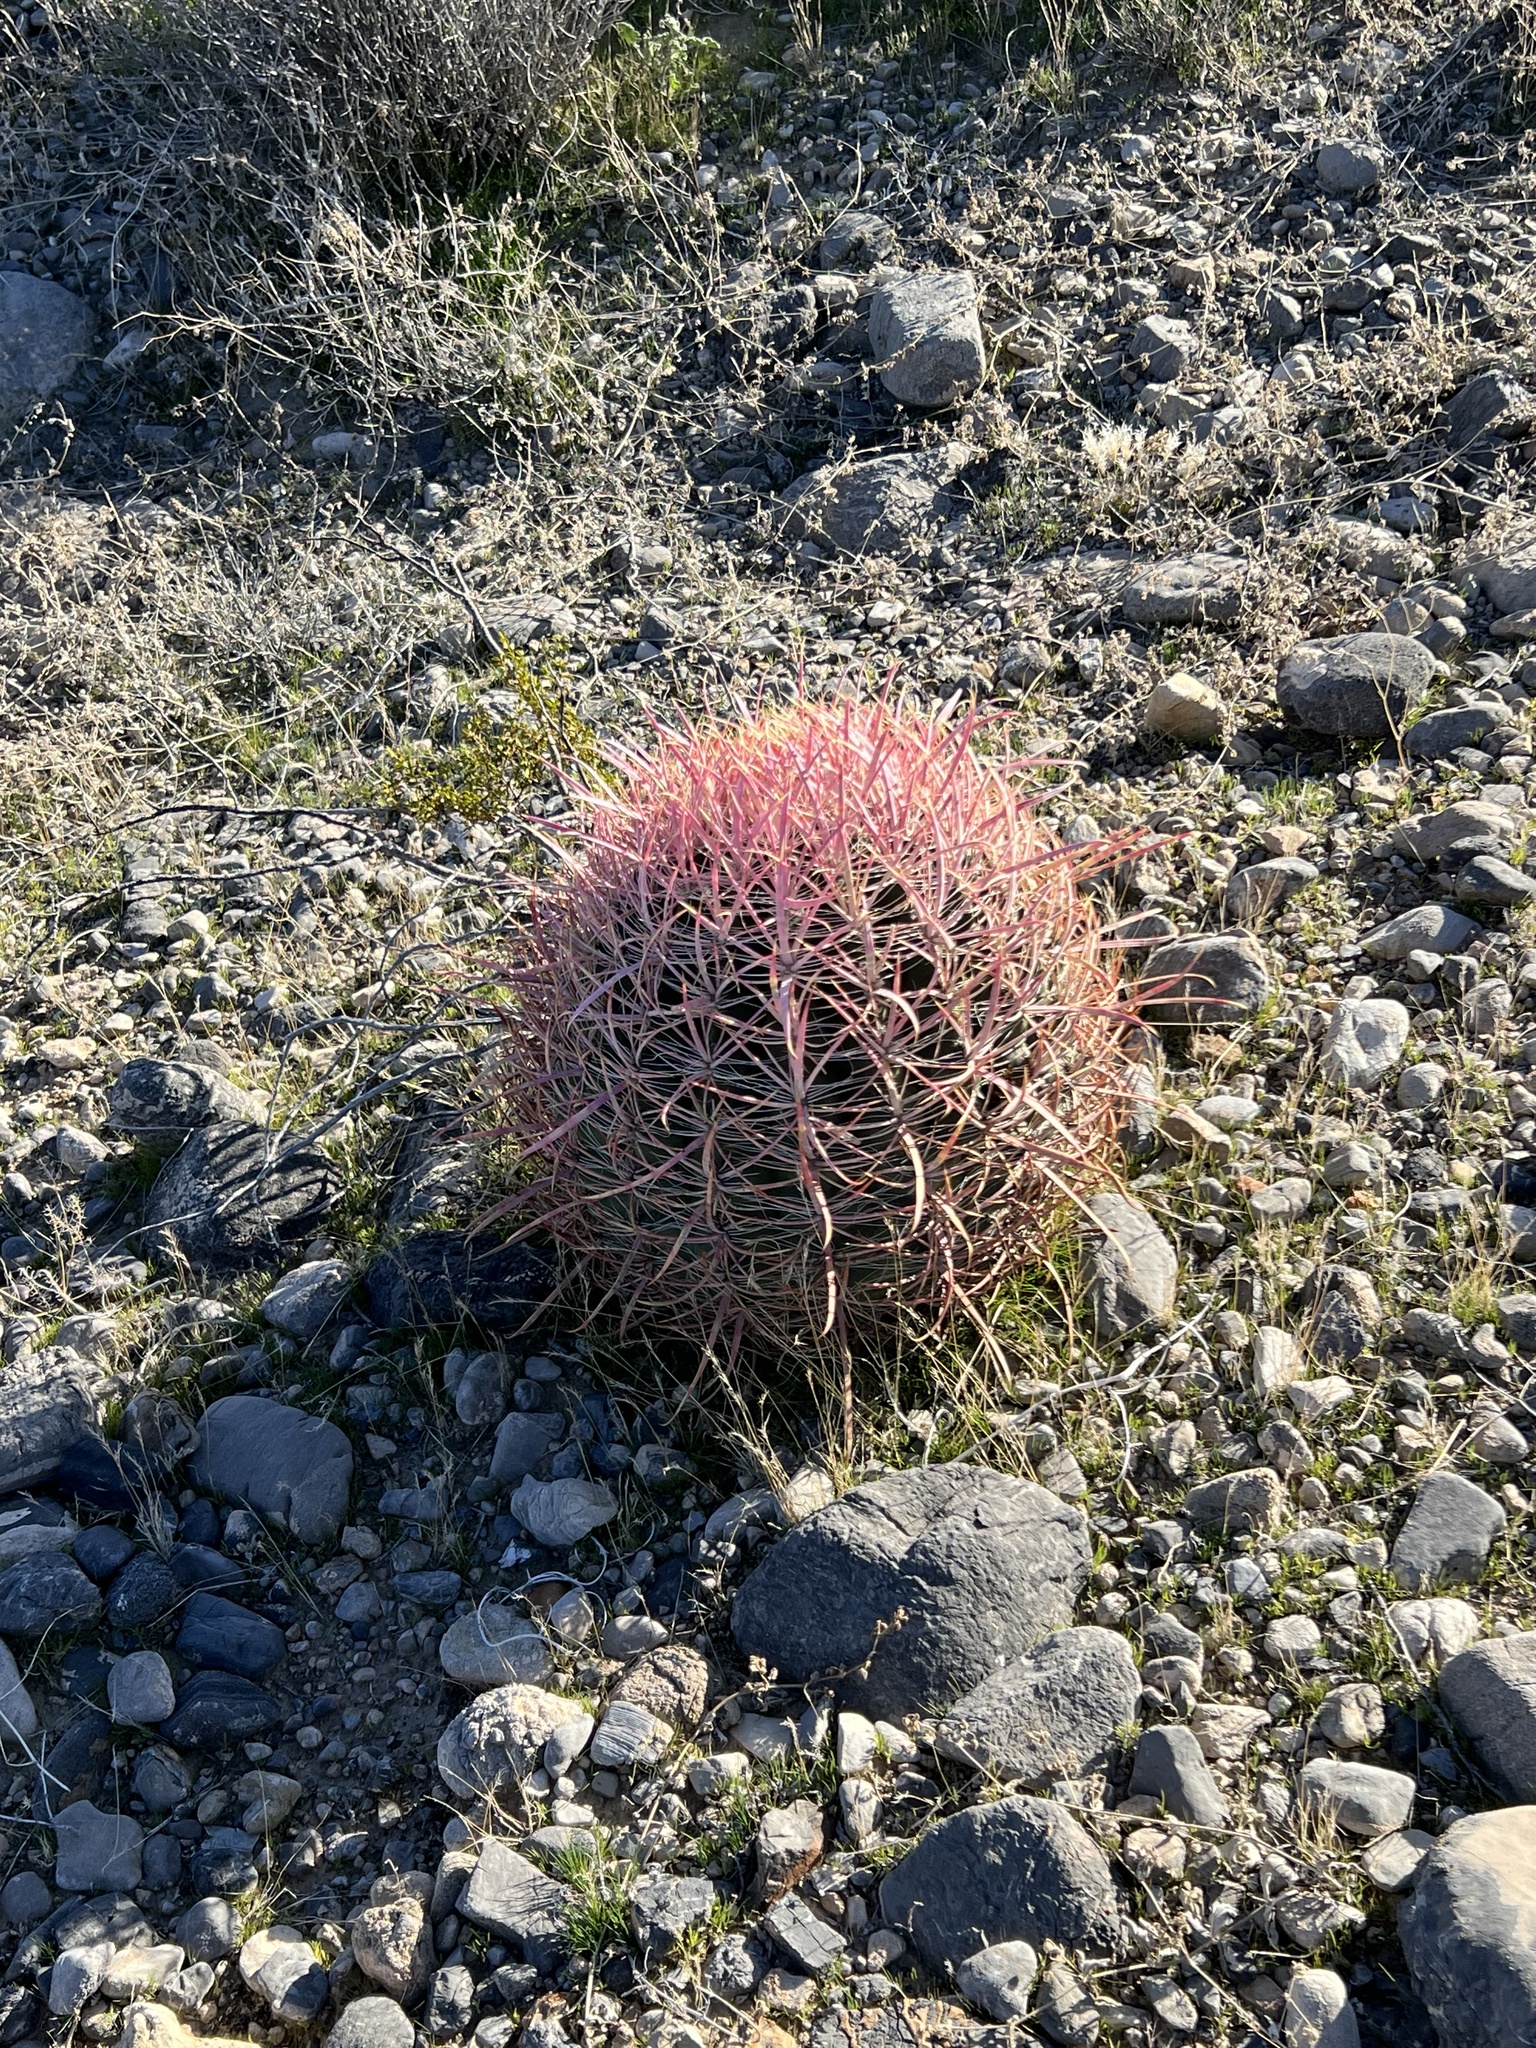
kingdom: Plantae
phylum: Tracheophyta
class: Magnoliopsida
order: Caryophyllales
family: Cactaceae
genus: Ferocactus
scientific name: Ferocactus cylindraceus
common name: California barrel cactus
